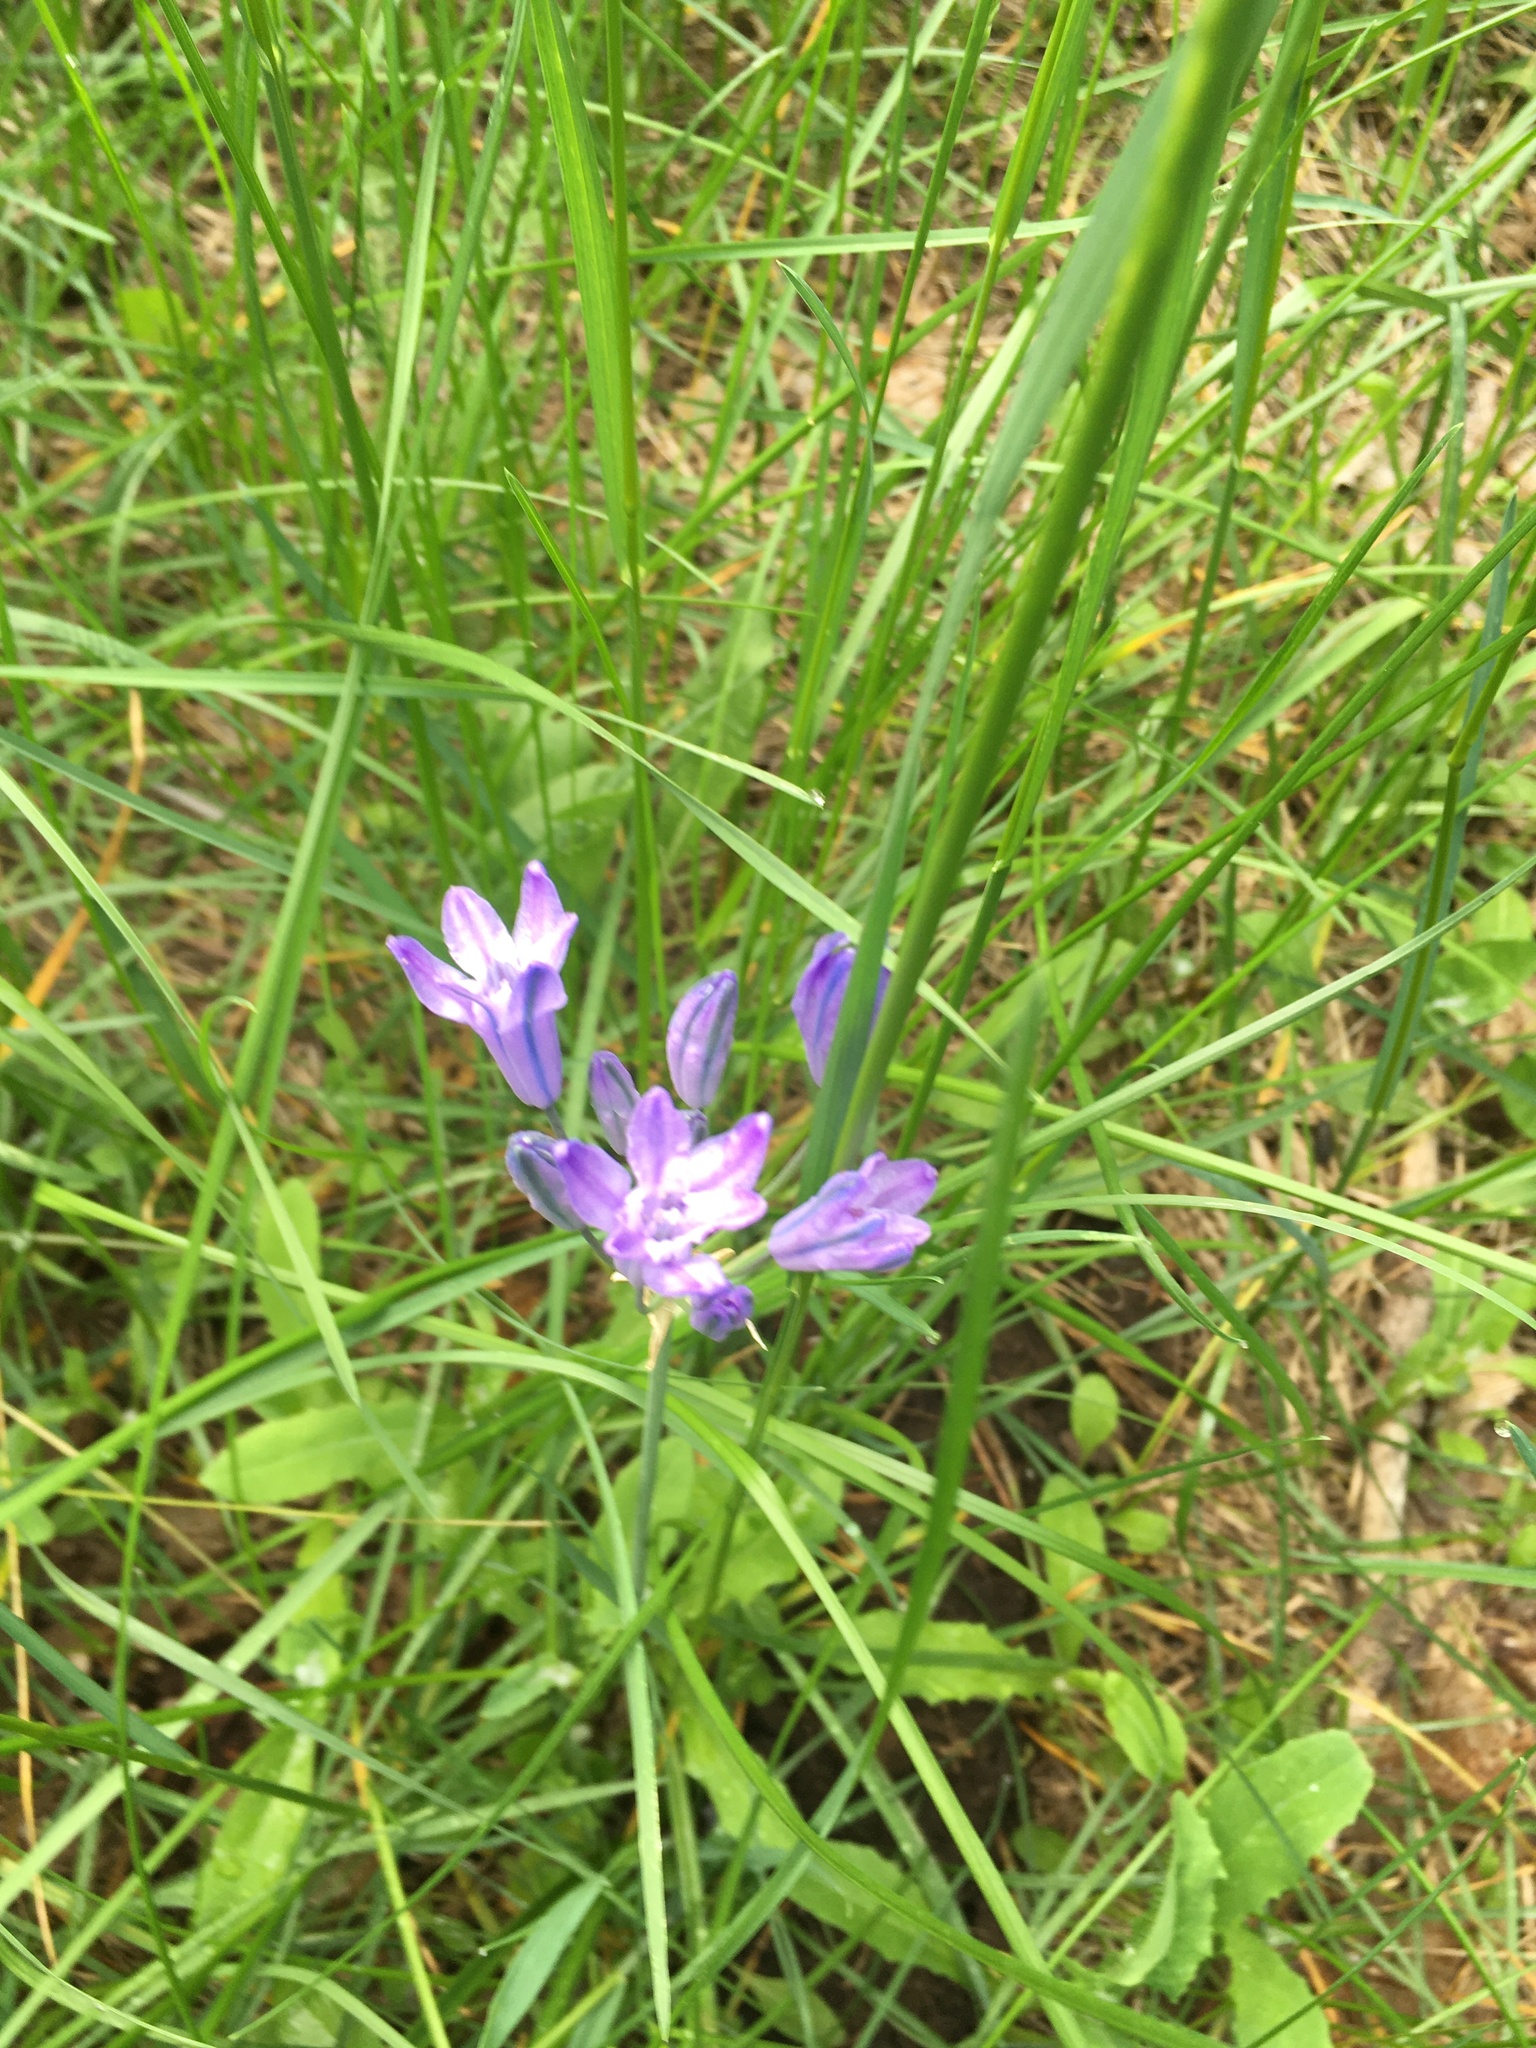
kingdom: Plantae
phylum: Tracheophyta
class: Liliopsida
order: Asparagales
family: Asparagaceae
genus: Triteleia
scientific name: Triteleia grandiflora
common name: Wild hyacinth
